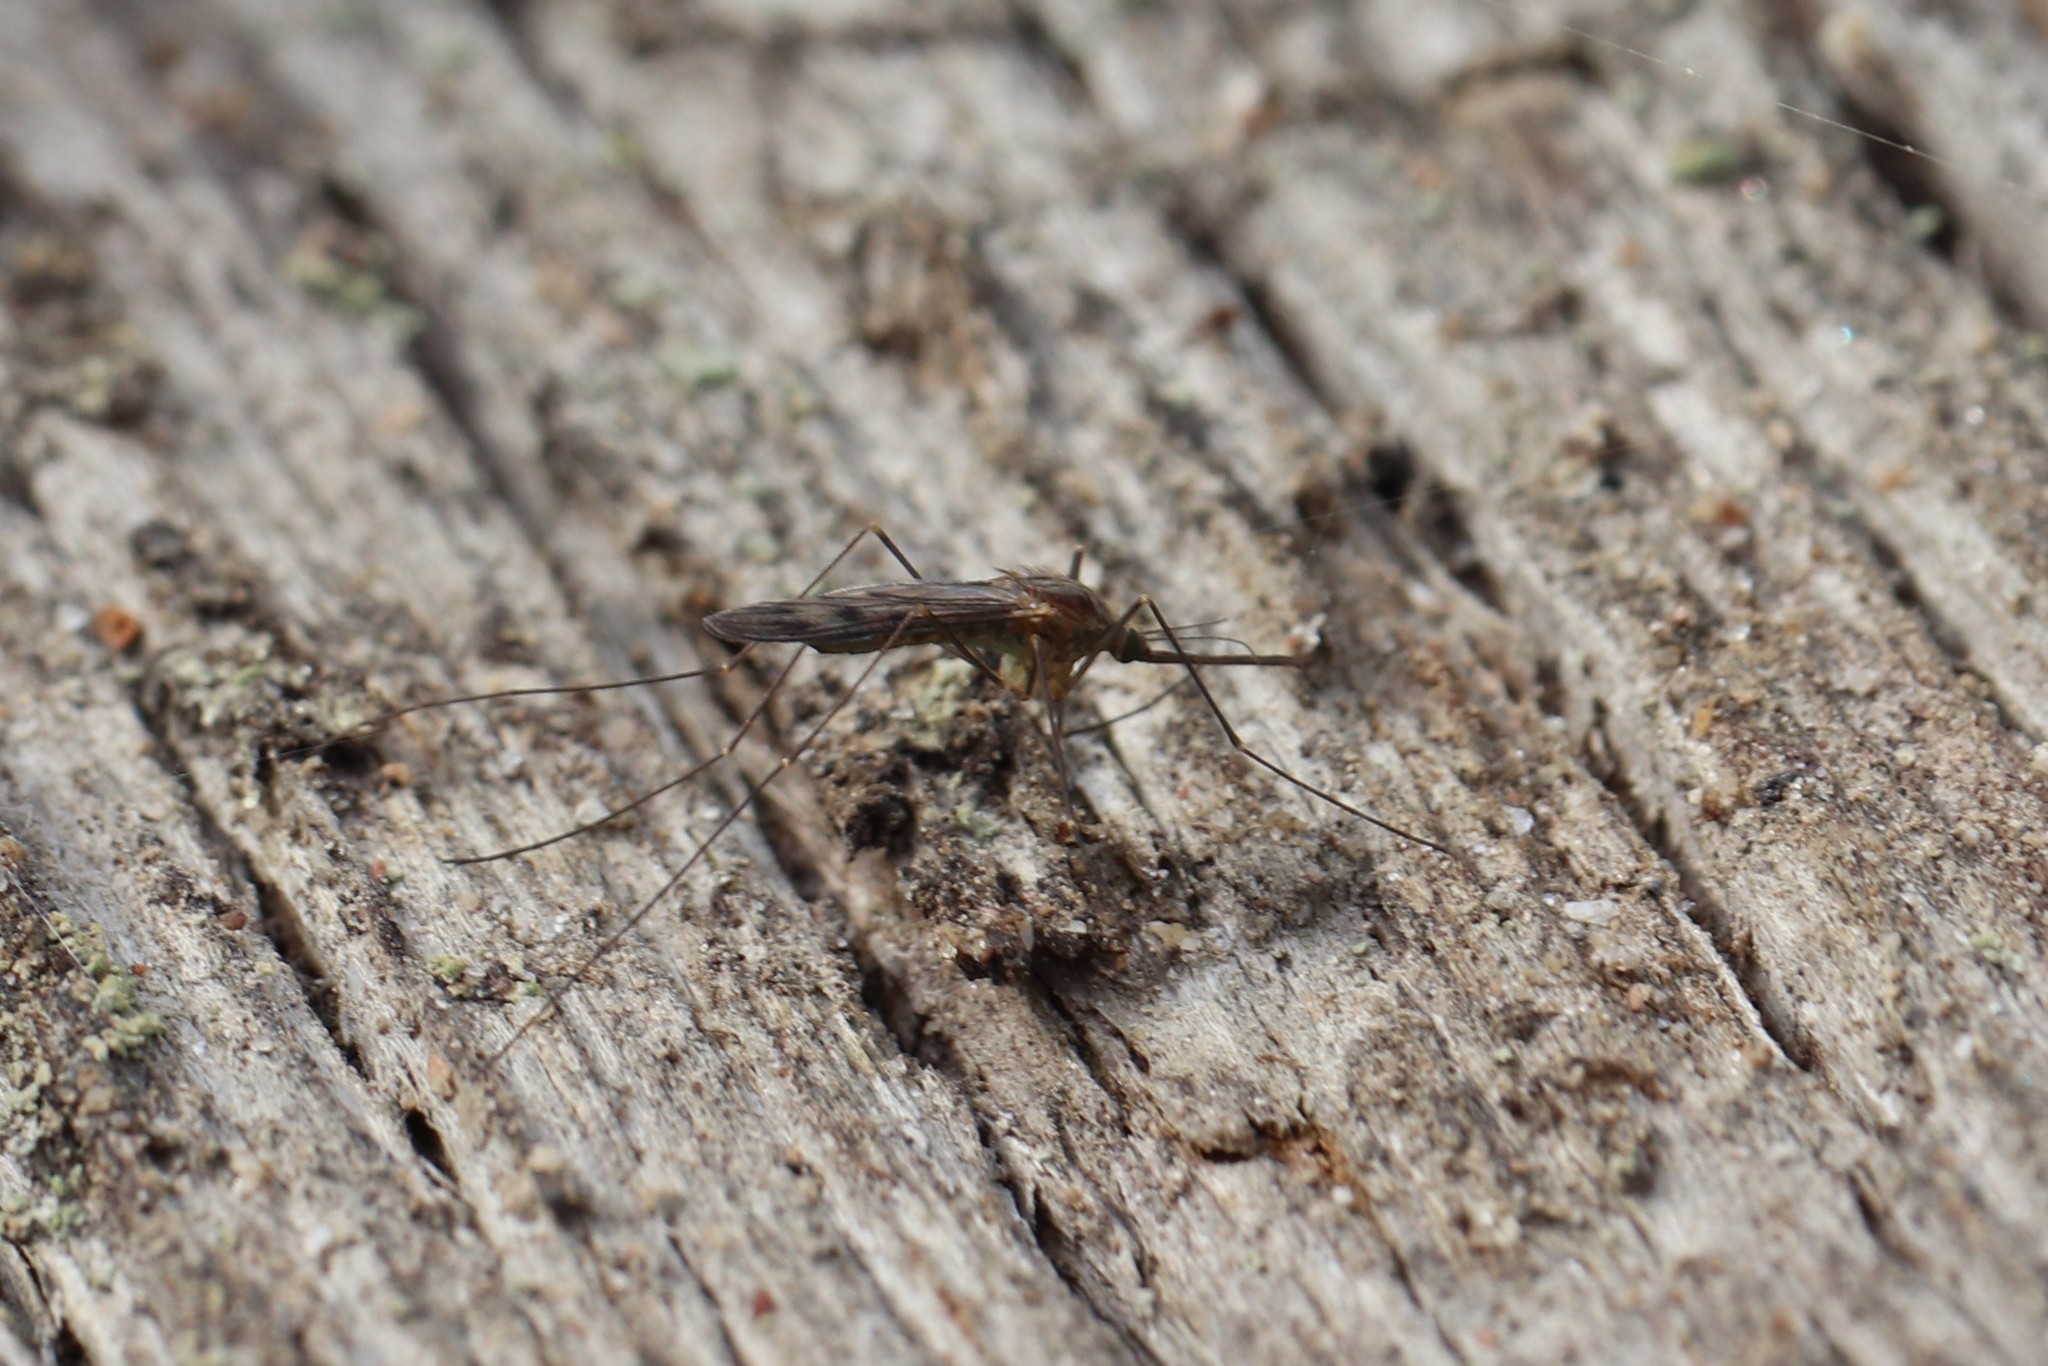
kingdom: Animalia
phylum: Arthropoda
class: Insecta
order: Diptera
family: Culicidae
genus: Anopheles
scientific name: Anopheles freeborni
